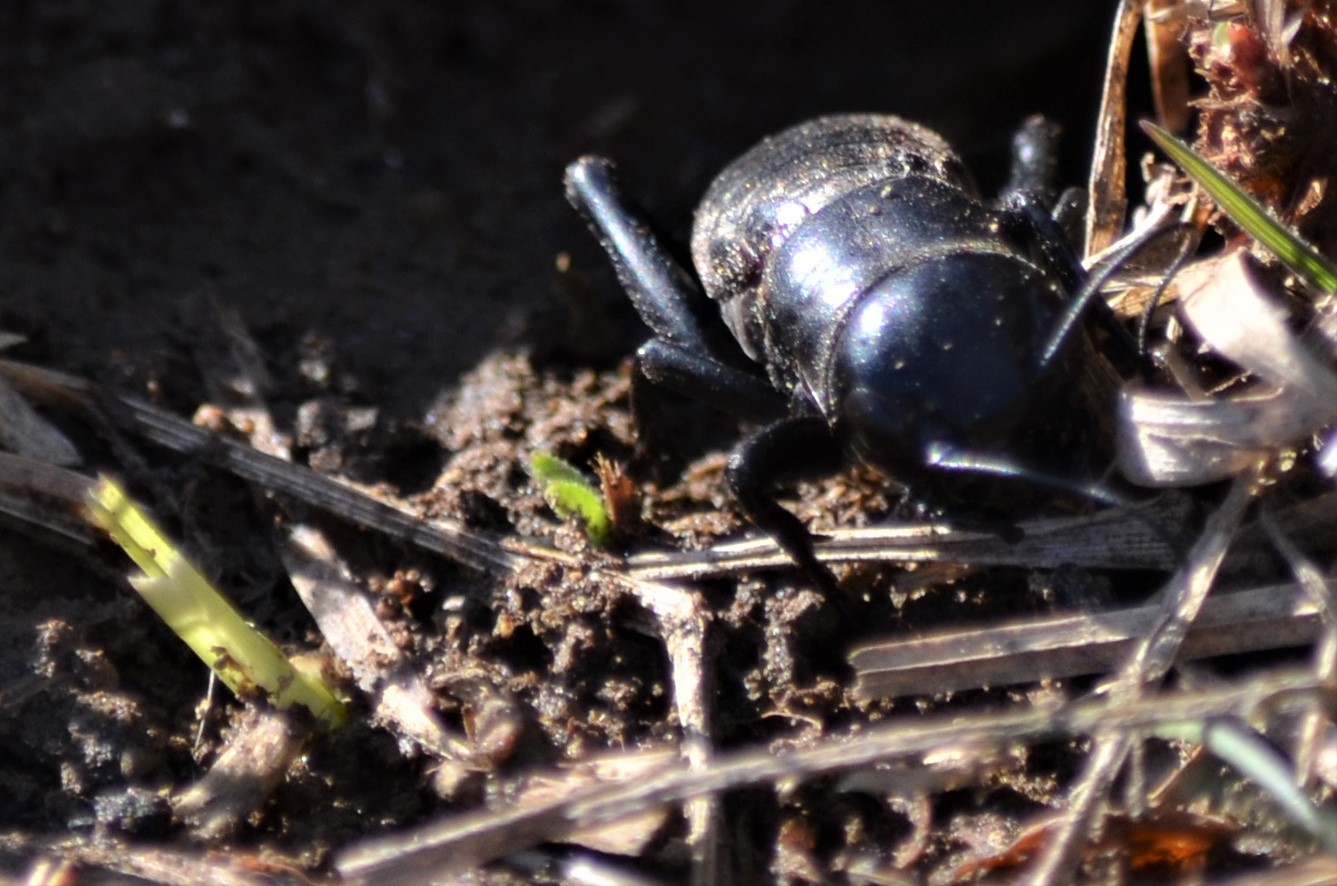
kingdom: Animalia
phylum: Arthropoda
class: Insecta
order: Orthoptera
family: Gryllidae
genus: Gryllus
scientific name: Gryllus campestris
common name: Field cricket
